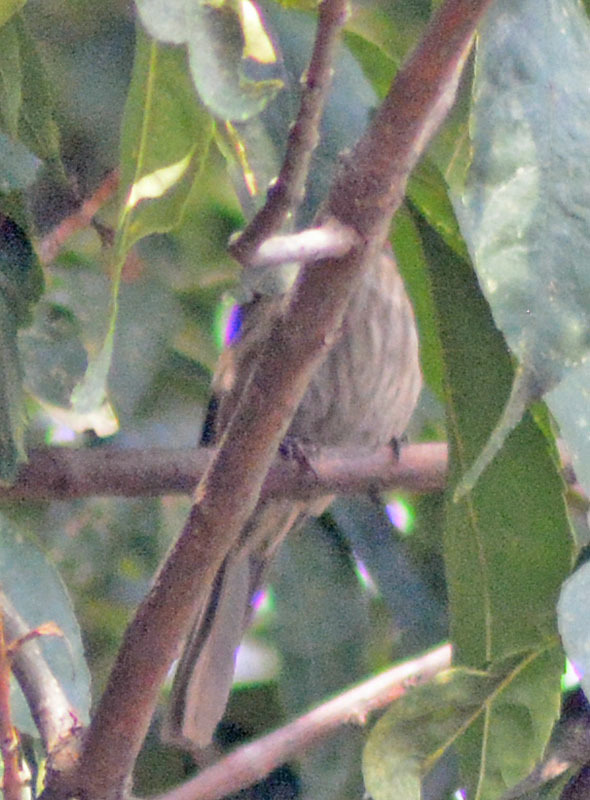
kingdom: Animalia
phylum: Chordata
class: Aves
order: Passeriformes
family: Fringillidae
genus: Haemorhous
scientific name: Haemorhous mexicanus
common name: House finch
